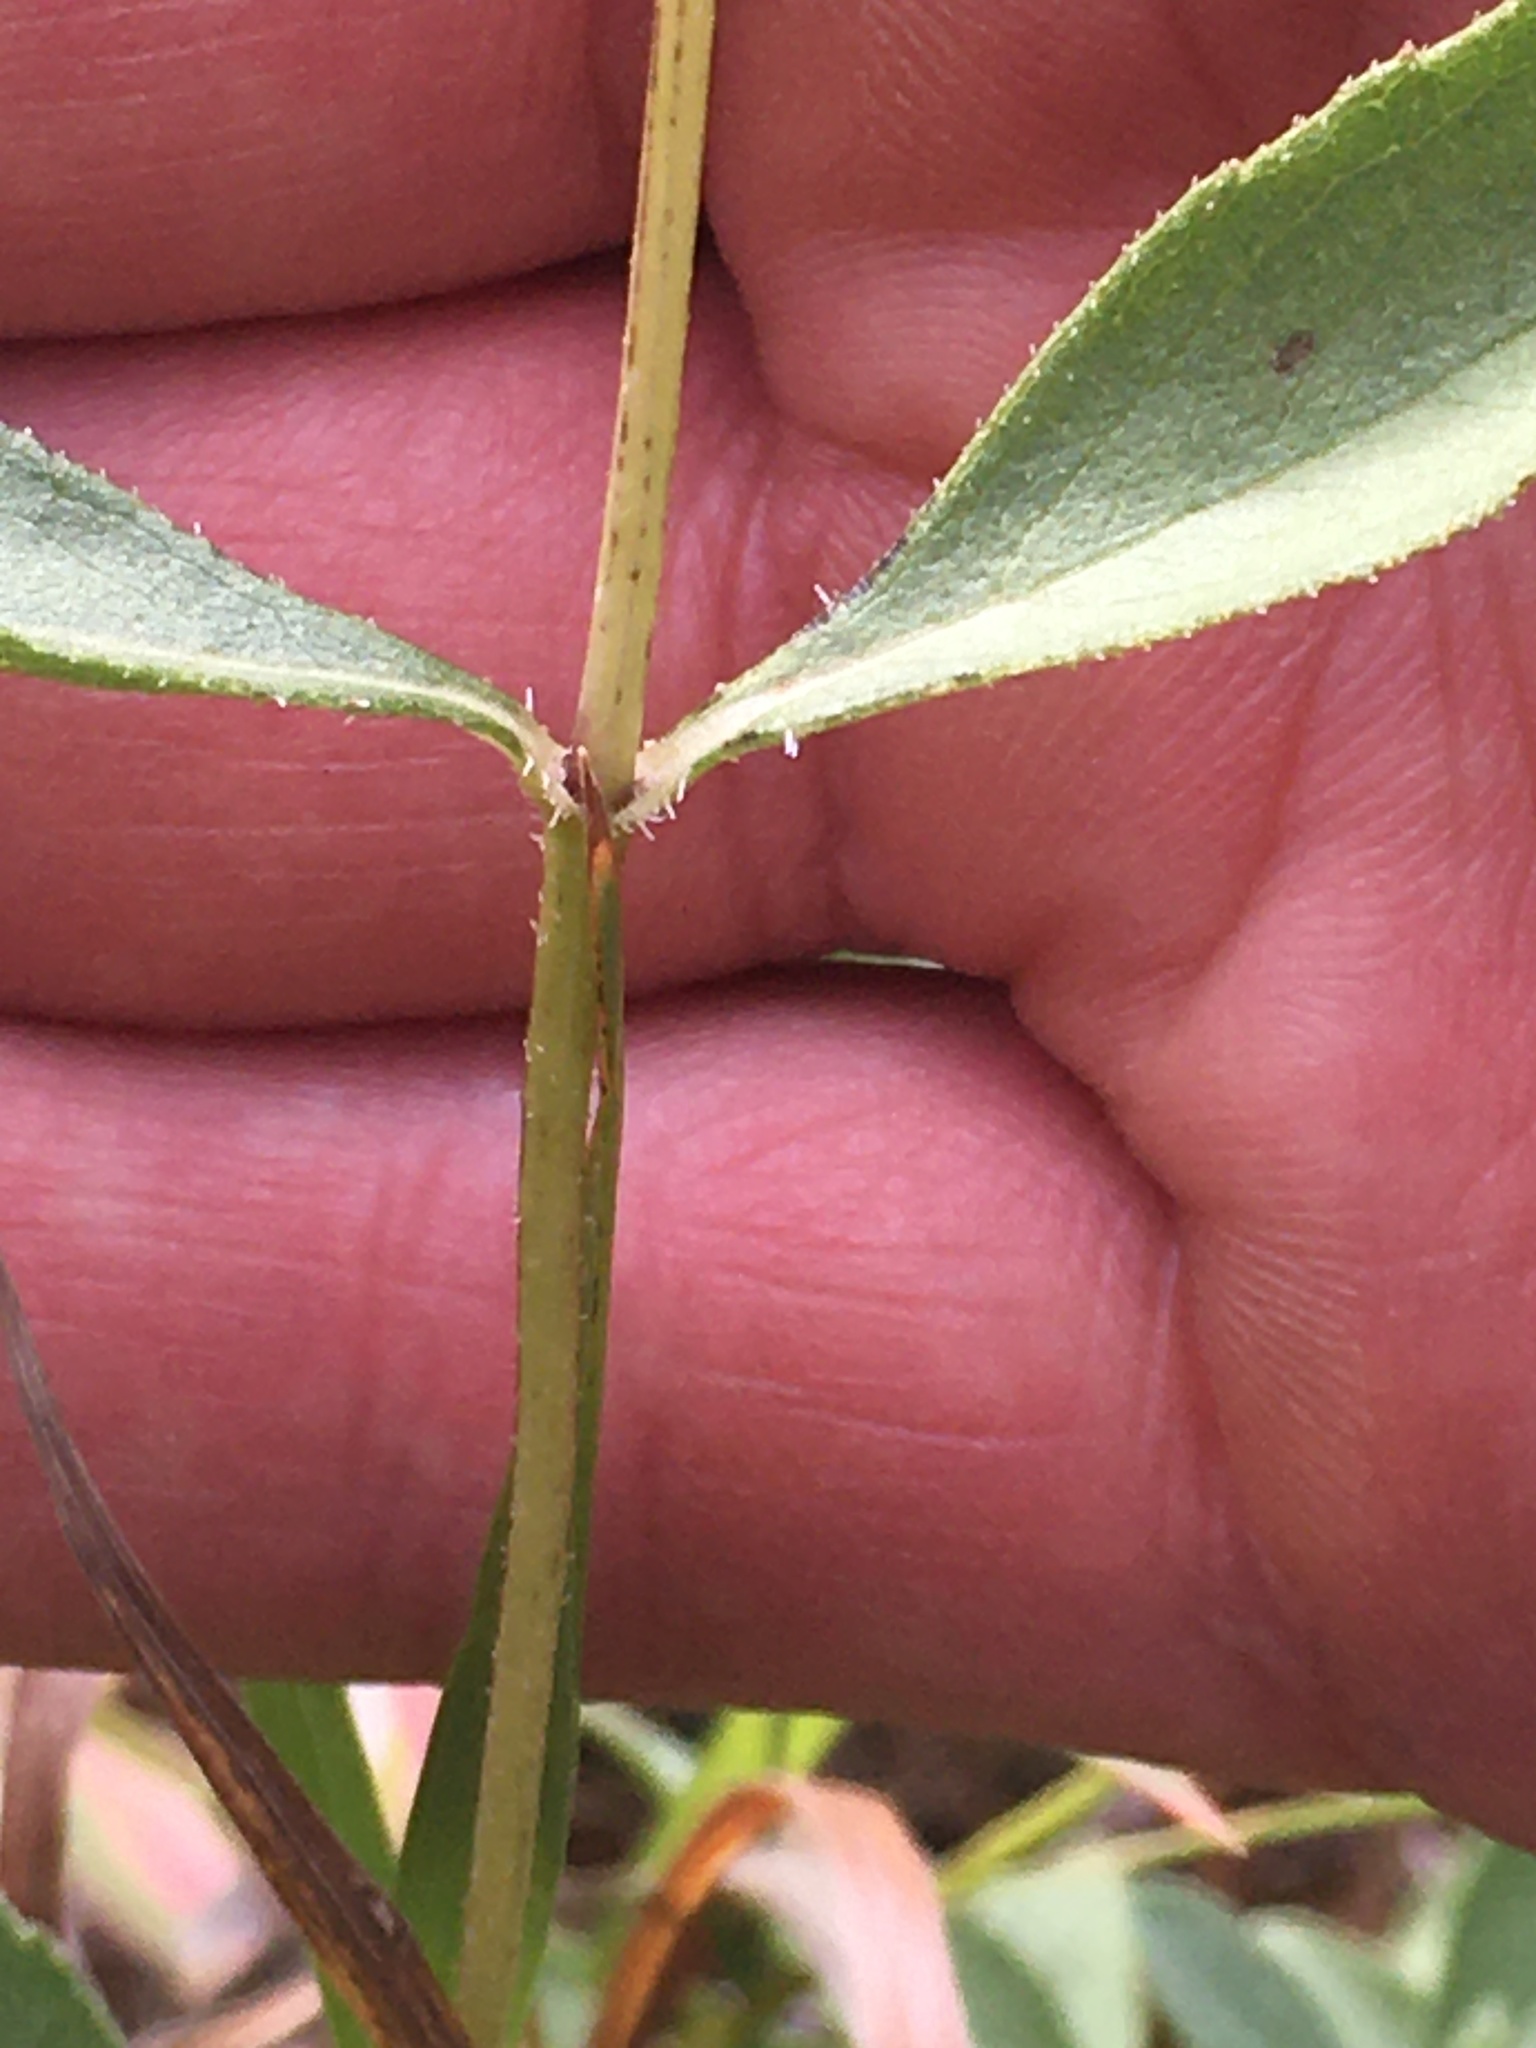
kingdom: Plantae
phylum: Tracheophyta
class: Magnoliopsida
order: Asterales
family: Asteraceae
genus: Helianthus
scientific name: Helianthus pauciflorus
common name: Stiff sunflower
